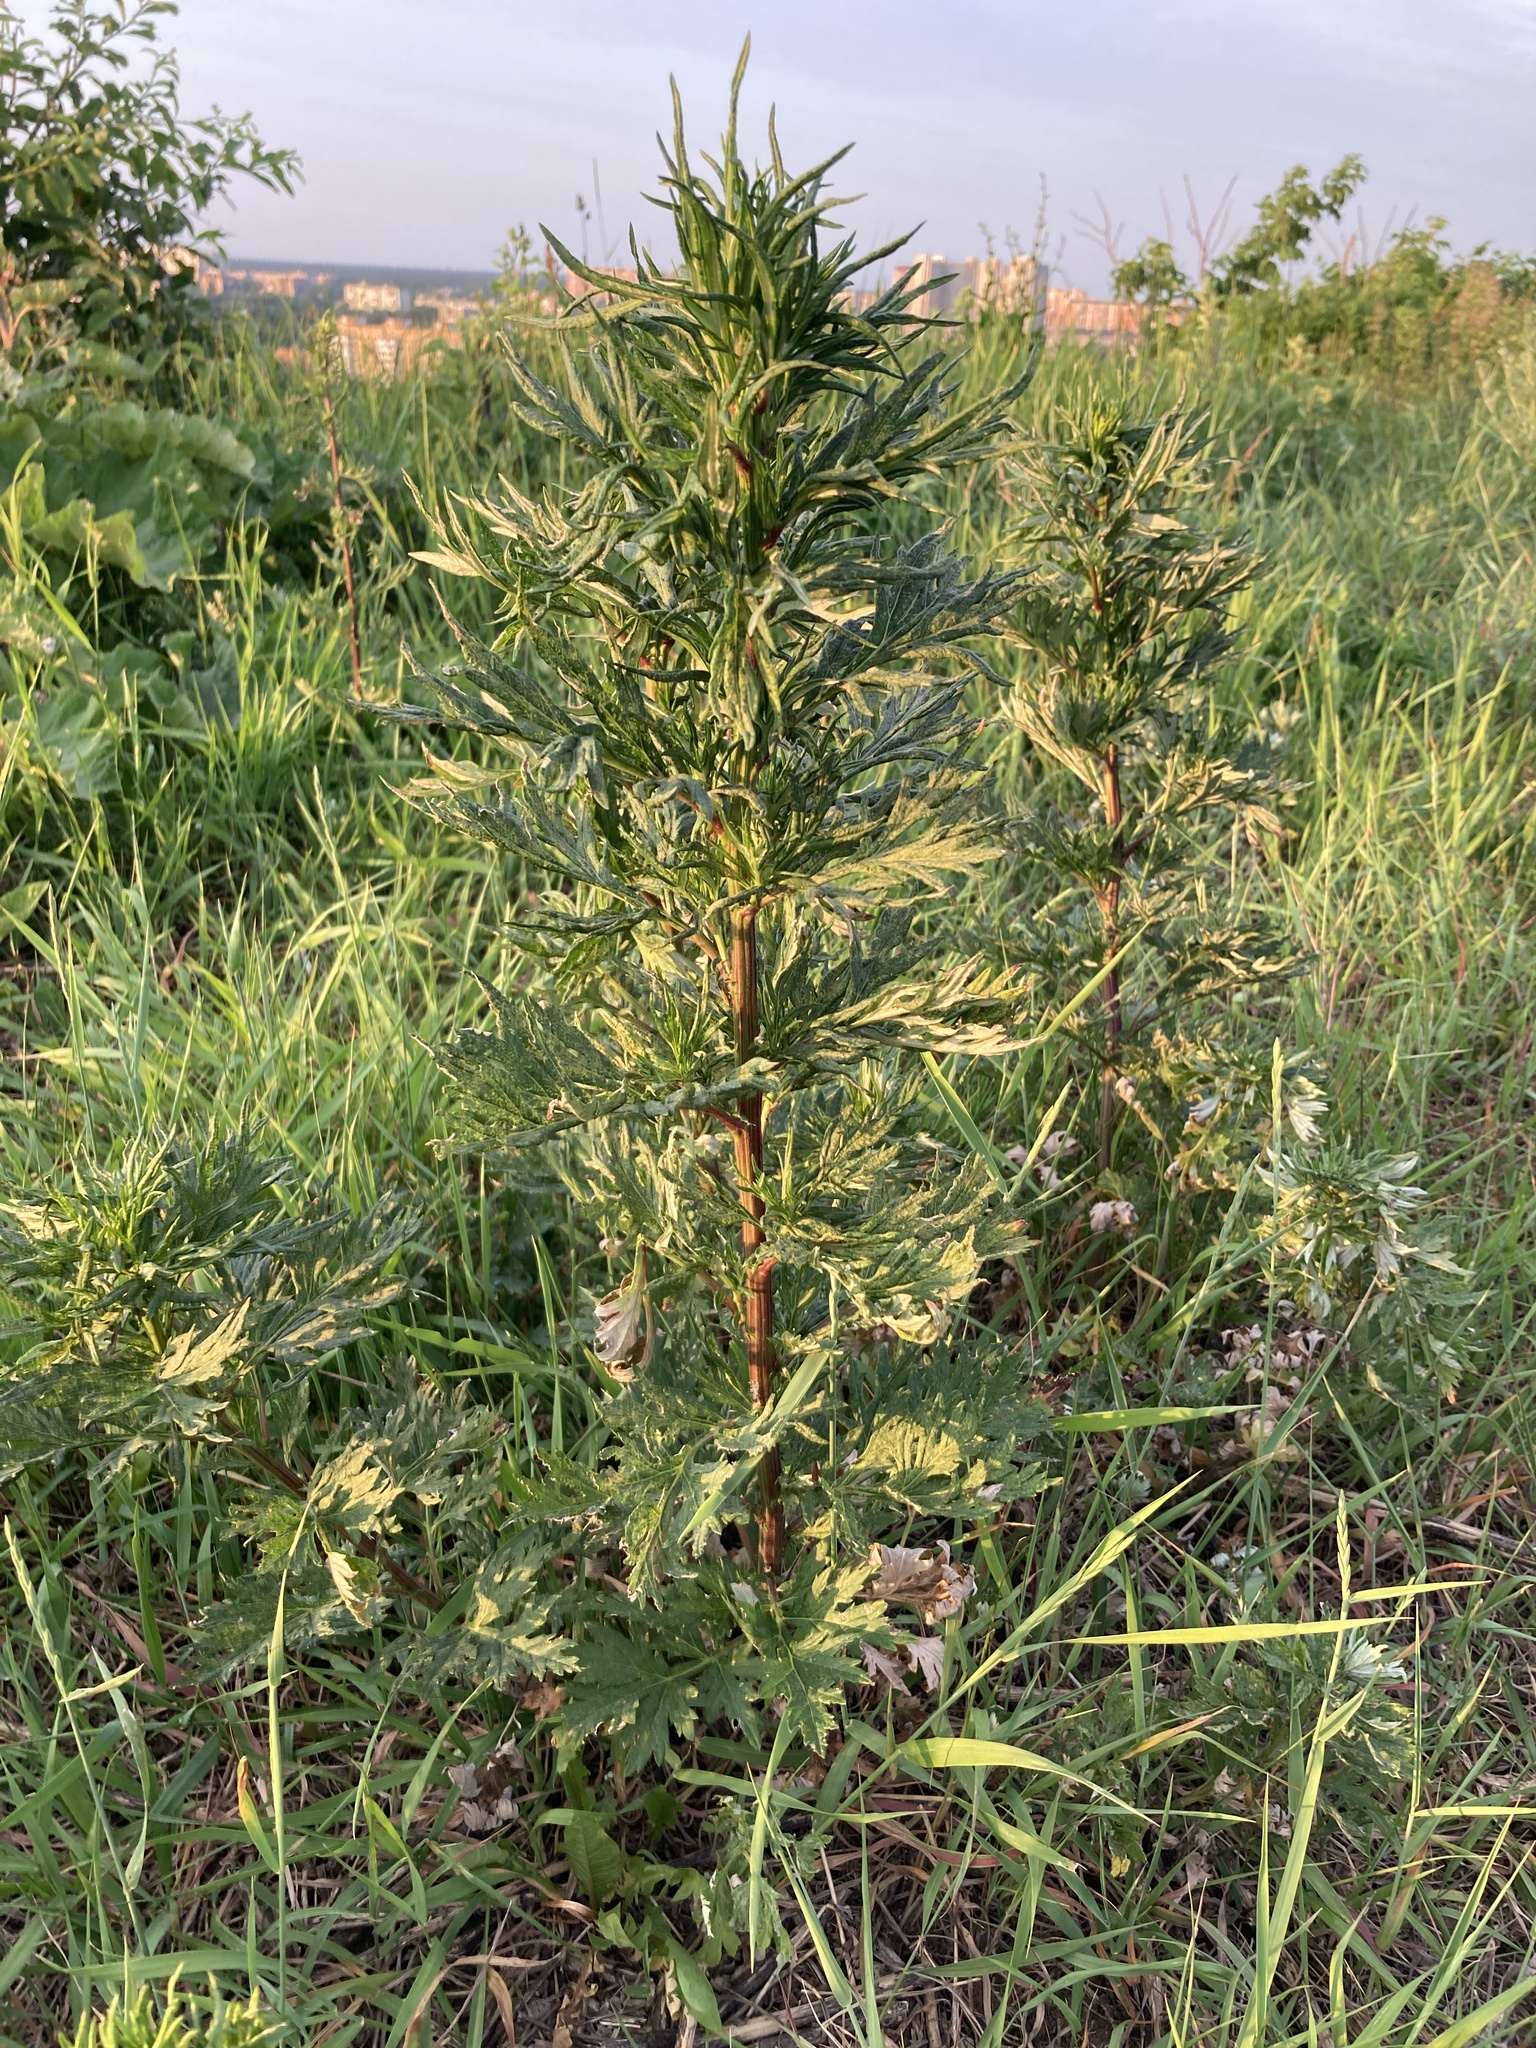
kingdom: Plantae
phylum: Tracheophyta
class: Magnoliopsida
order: Asterales
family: Asteraceae
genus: Artemisia
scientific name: Artemisia vulgaris
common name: Mugwort
